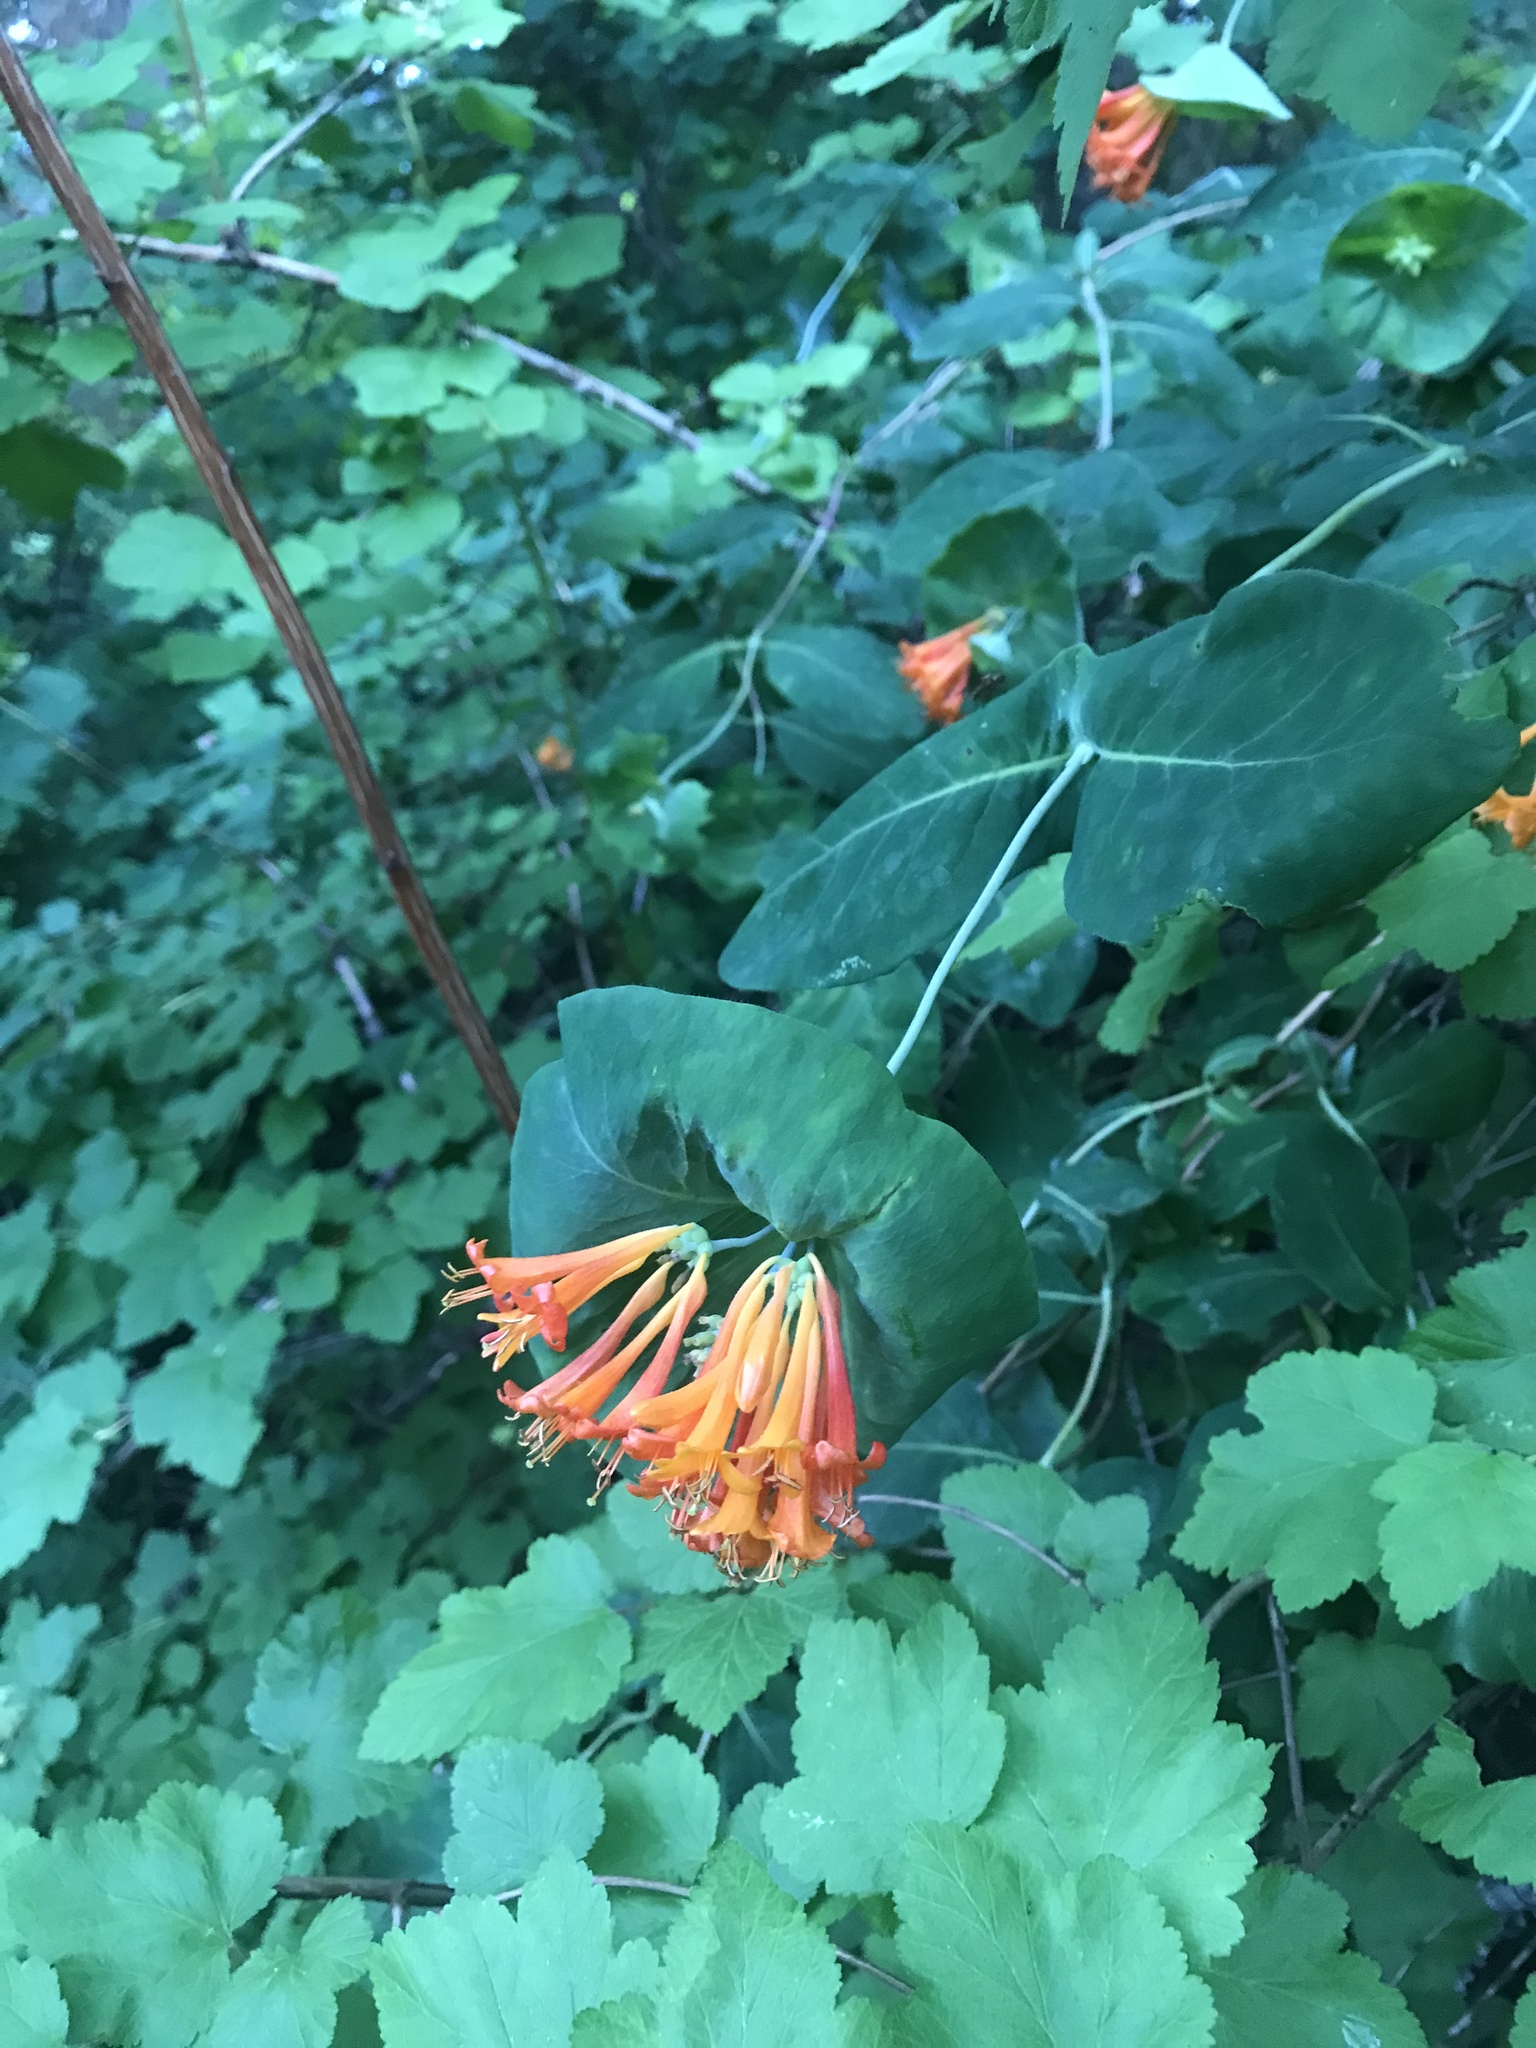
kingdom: Plantae
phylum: Tracheophyta
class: Magnoliopsida
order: Dipsacales
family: Caprifoliaceae
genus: Lonicera
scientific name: Lonicera ciliosa
